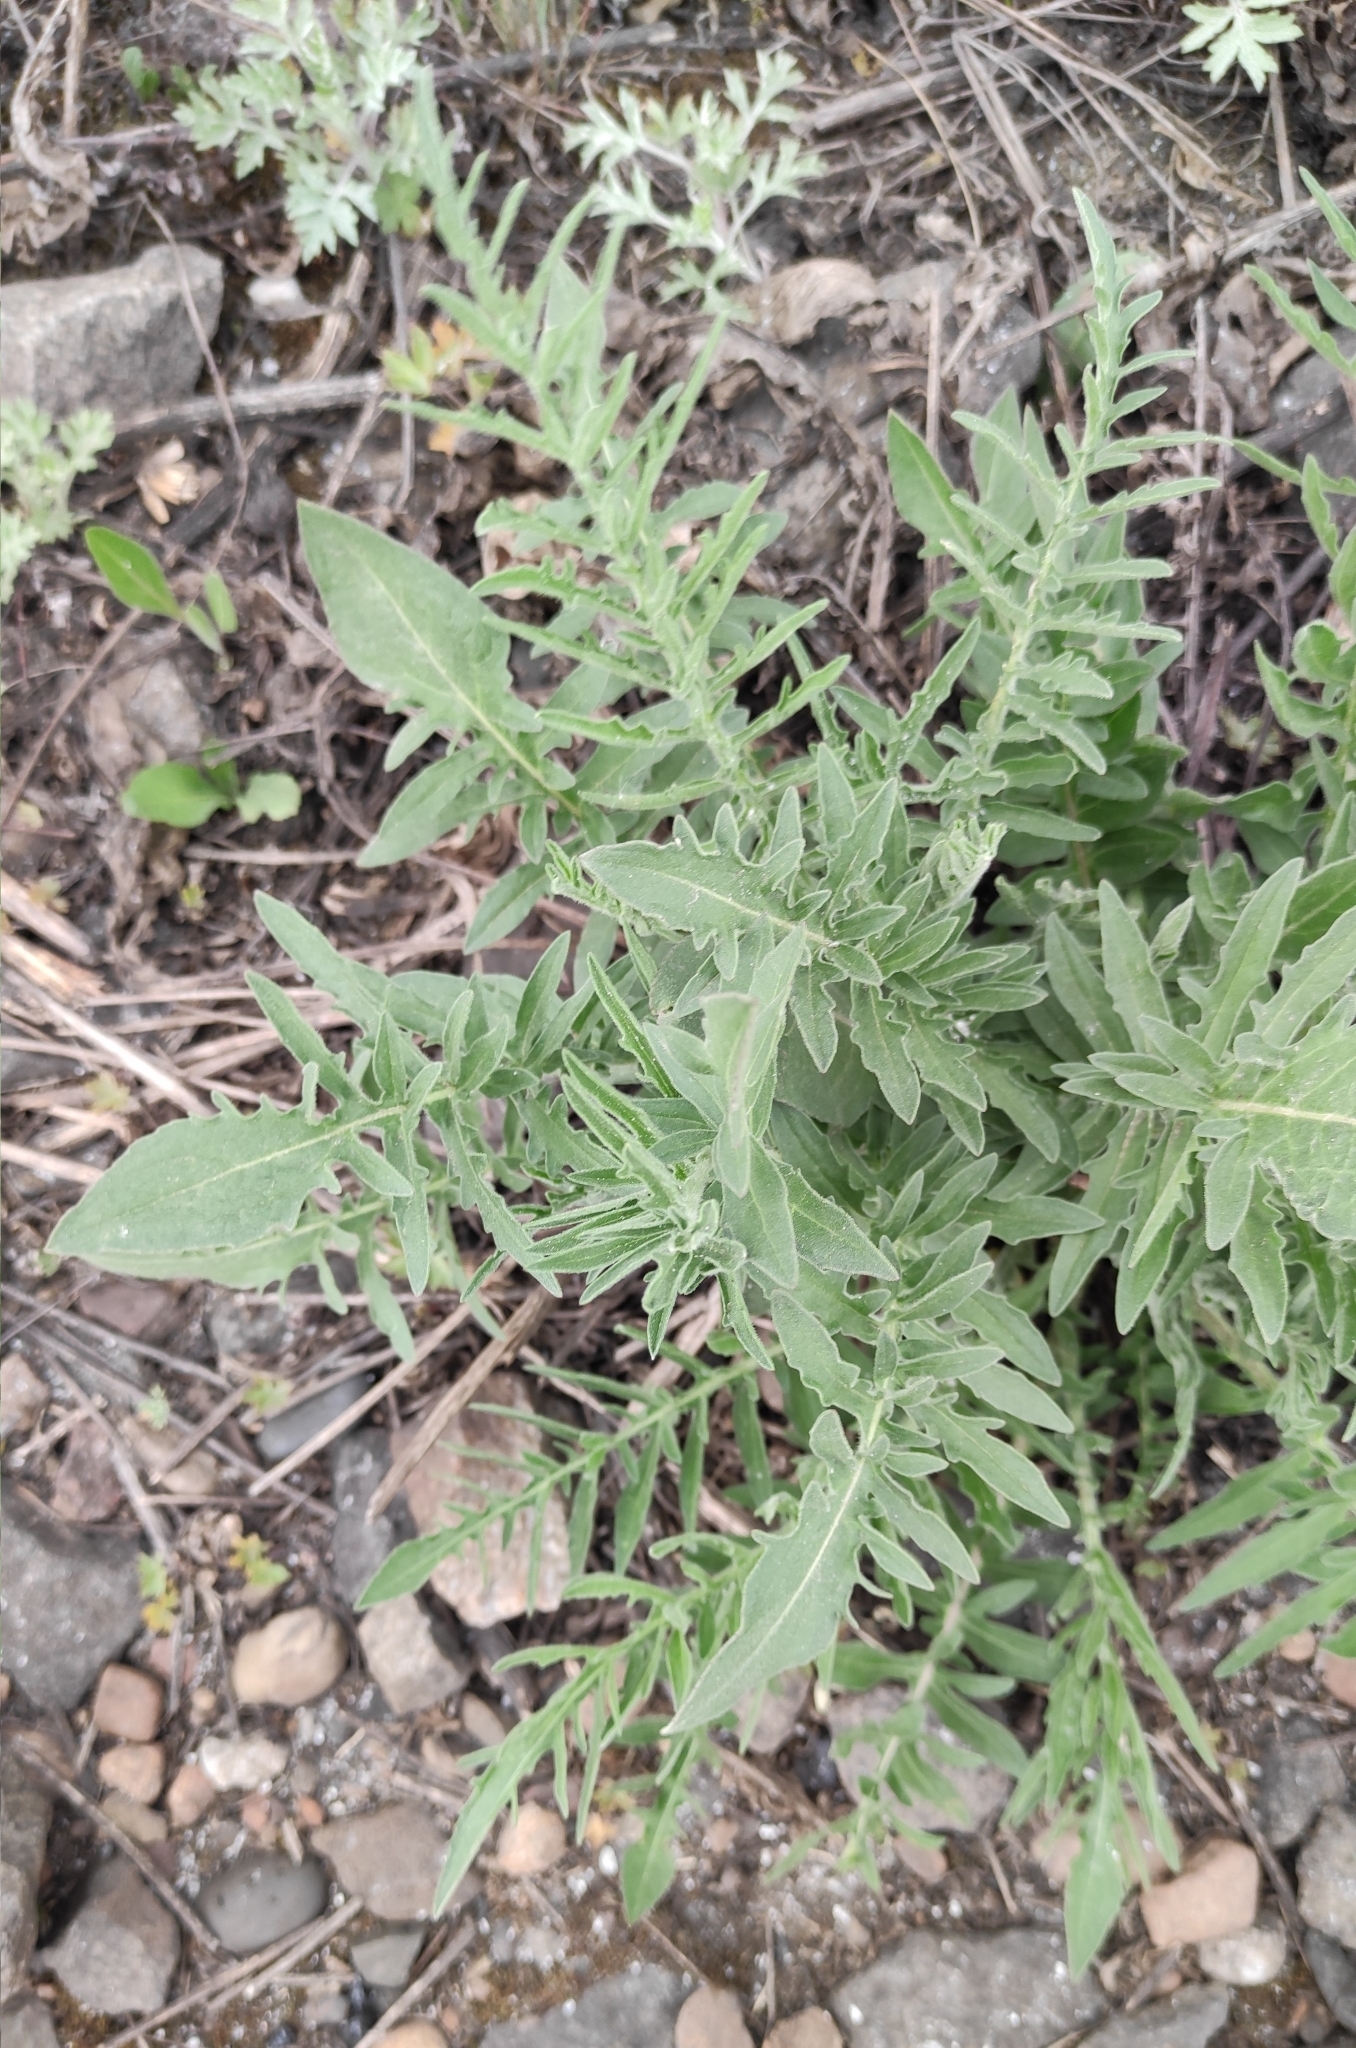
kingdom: Plantae
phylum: Tracheophyta
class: Magnoliopsida
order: Asterales
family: Asteraceae
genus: Centaurea
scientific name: Centaurea scabiosa
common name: Greater knapweed
